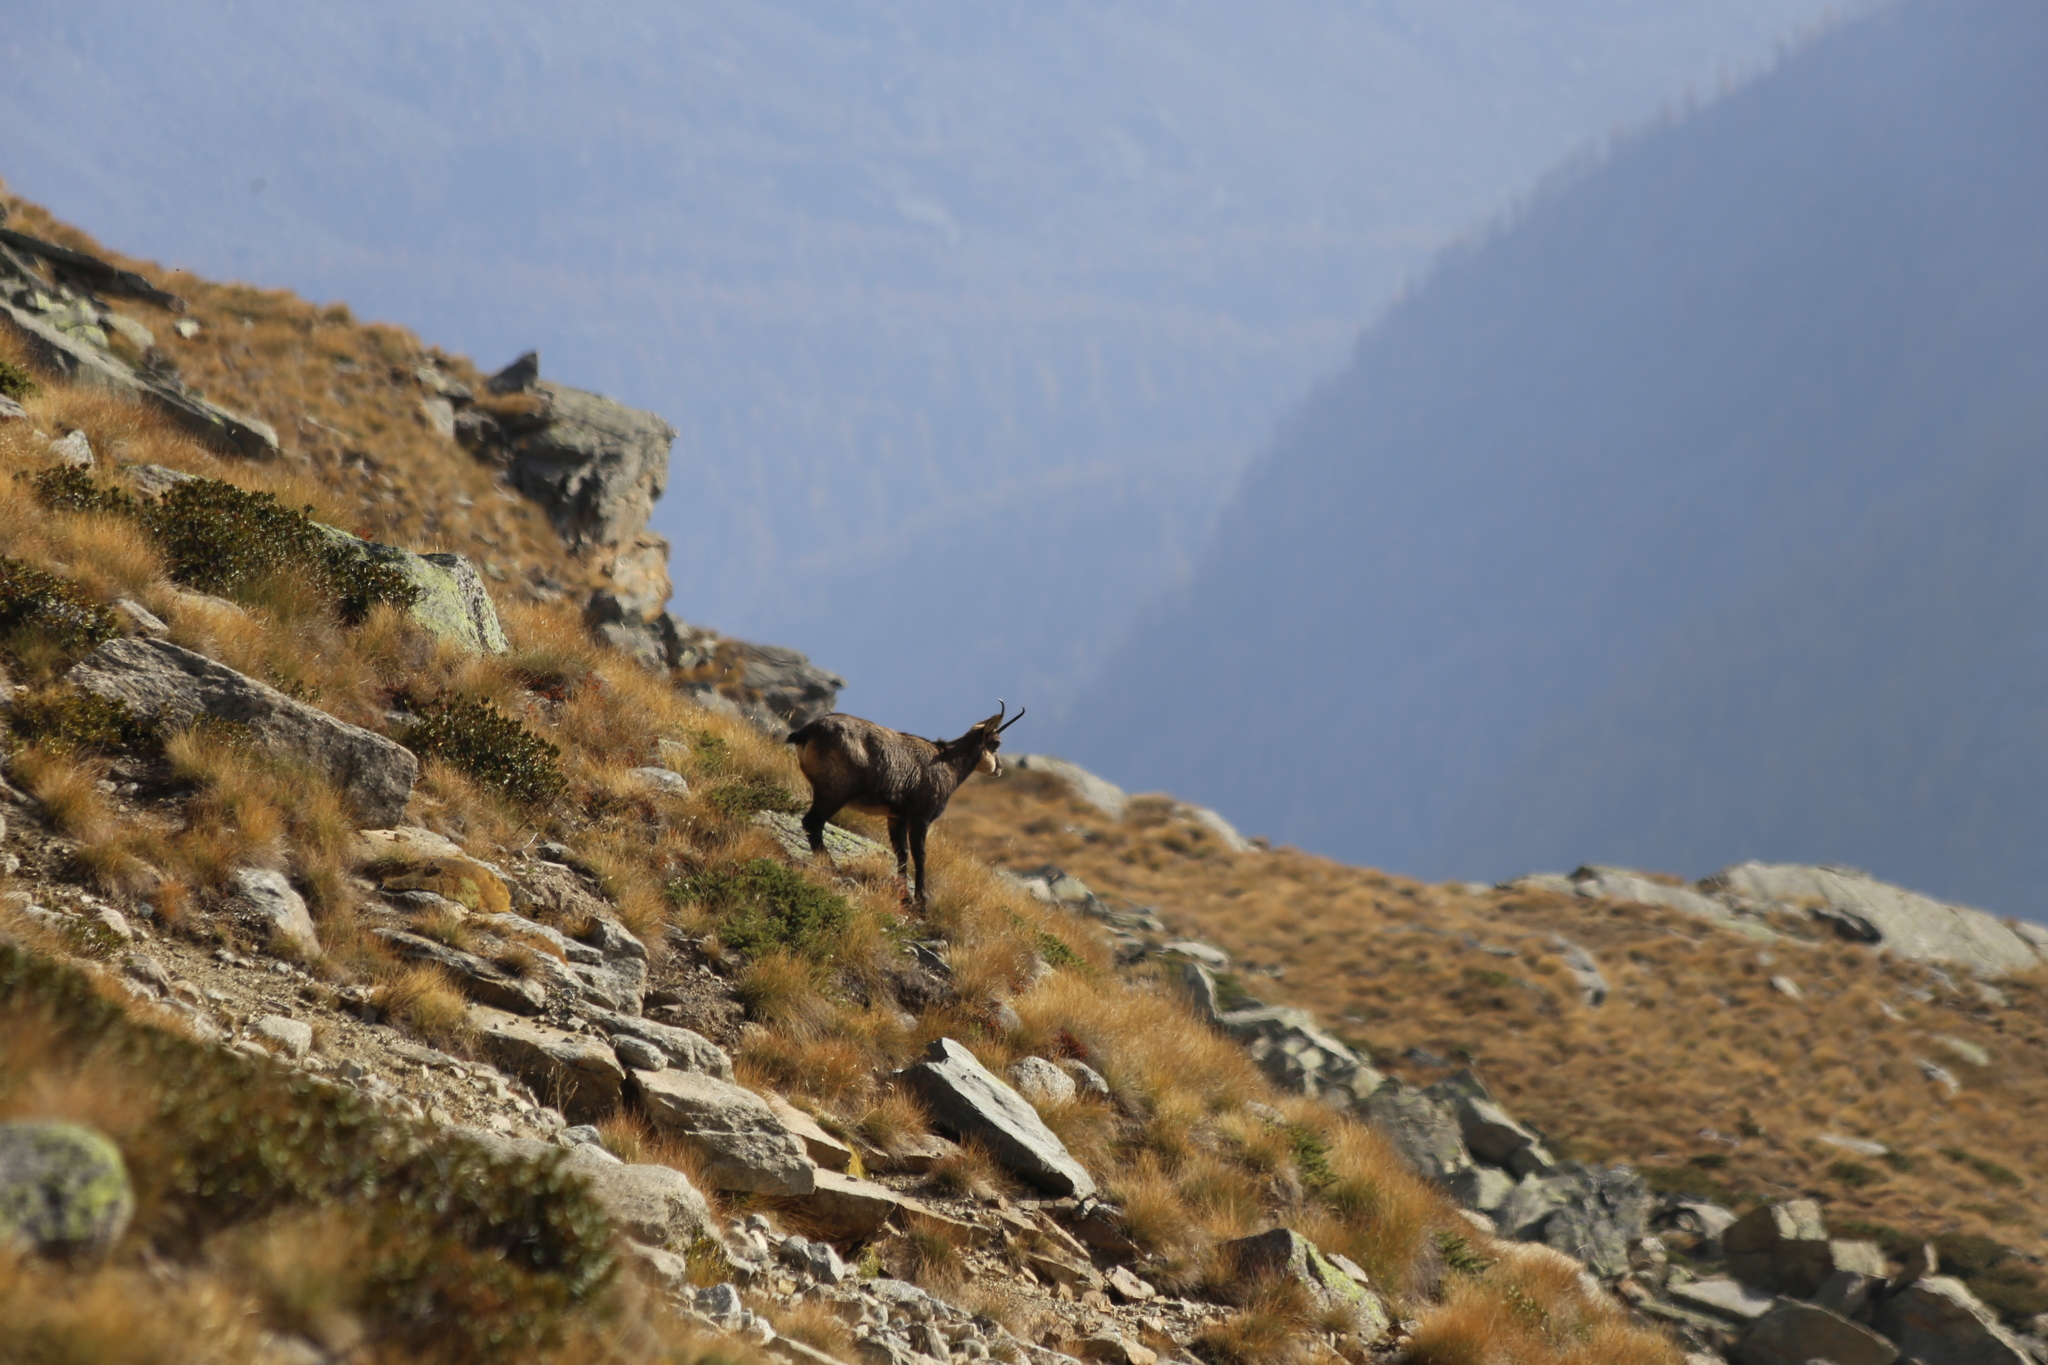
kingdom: Animalia
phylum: Chordata
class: Mammalia
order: Artiodactyla
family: Bovidae
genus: Rupicapra
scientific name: Rupicapra rupicapra
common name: Chamois
